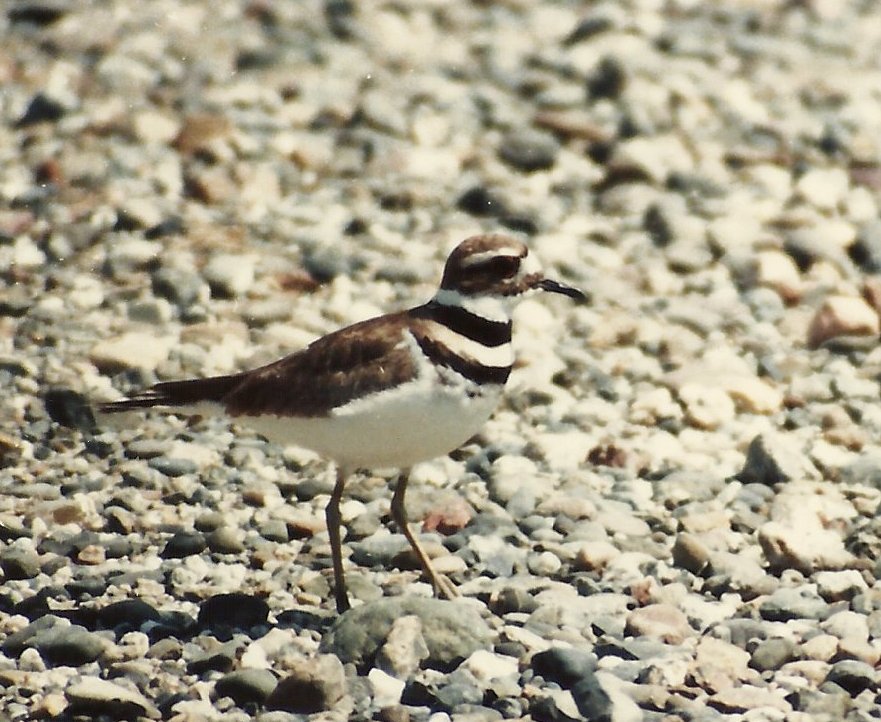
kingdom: Animalia
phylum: Chordata
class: Aves
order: Charadriiformes
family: Charadriidae
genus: Charadrius
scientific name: Charadrius vociferus
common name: Killdeer
